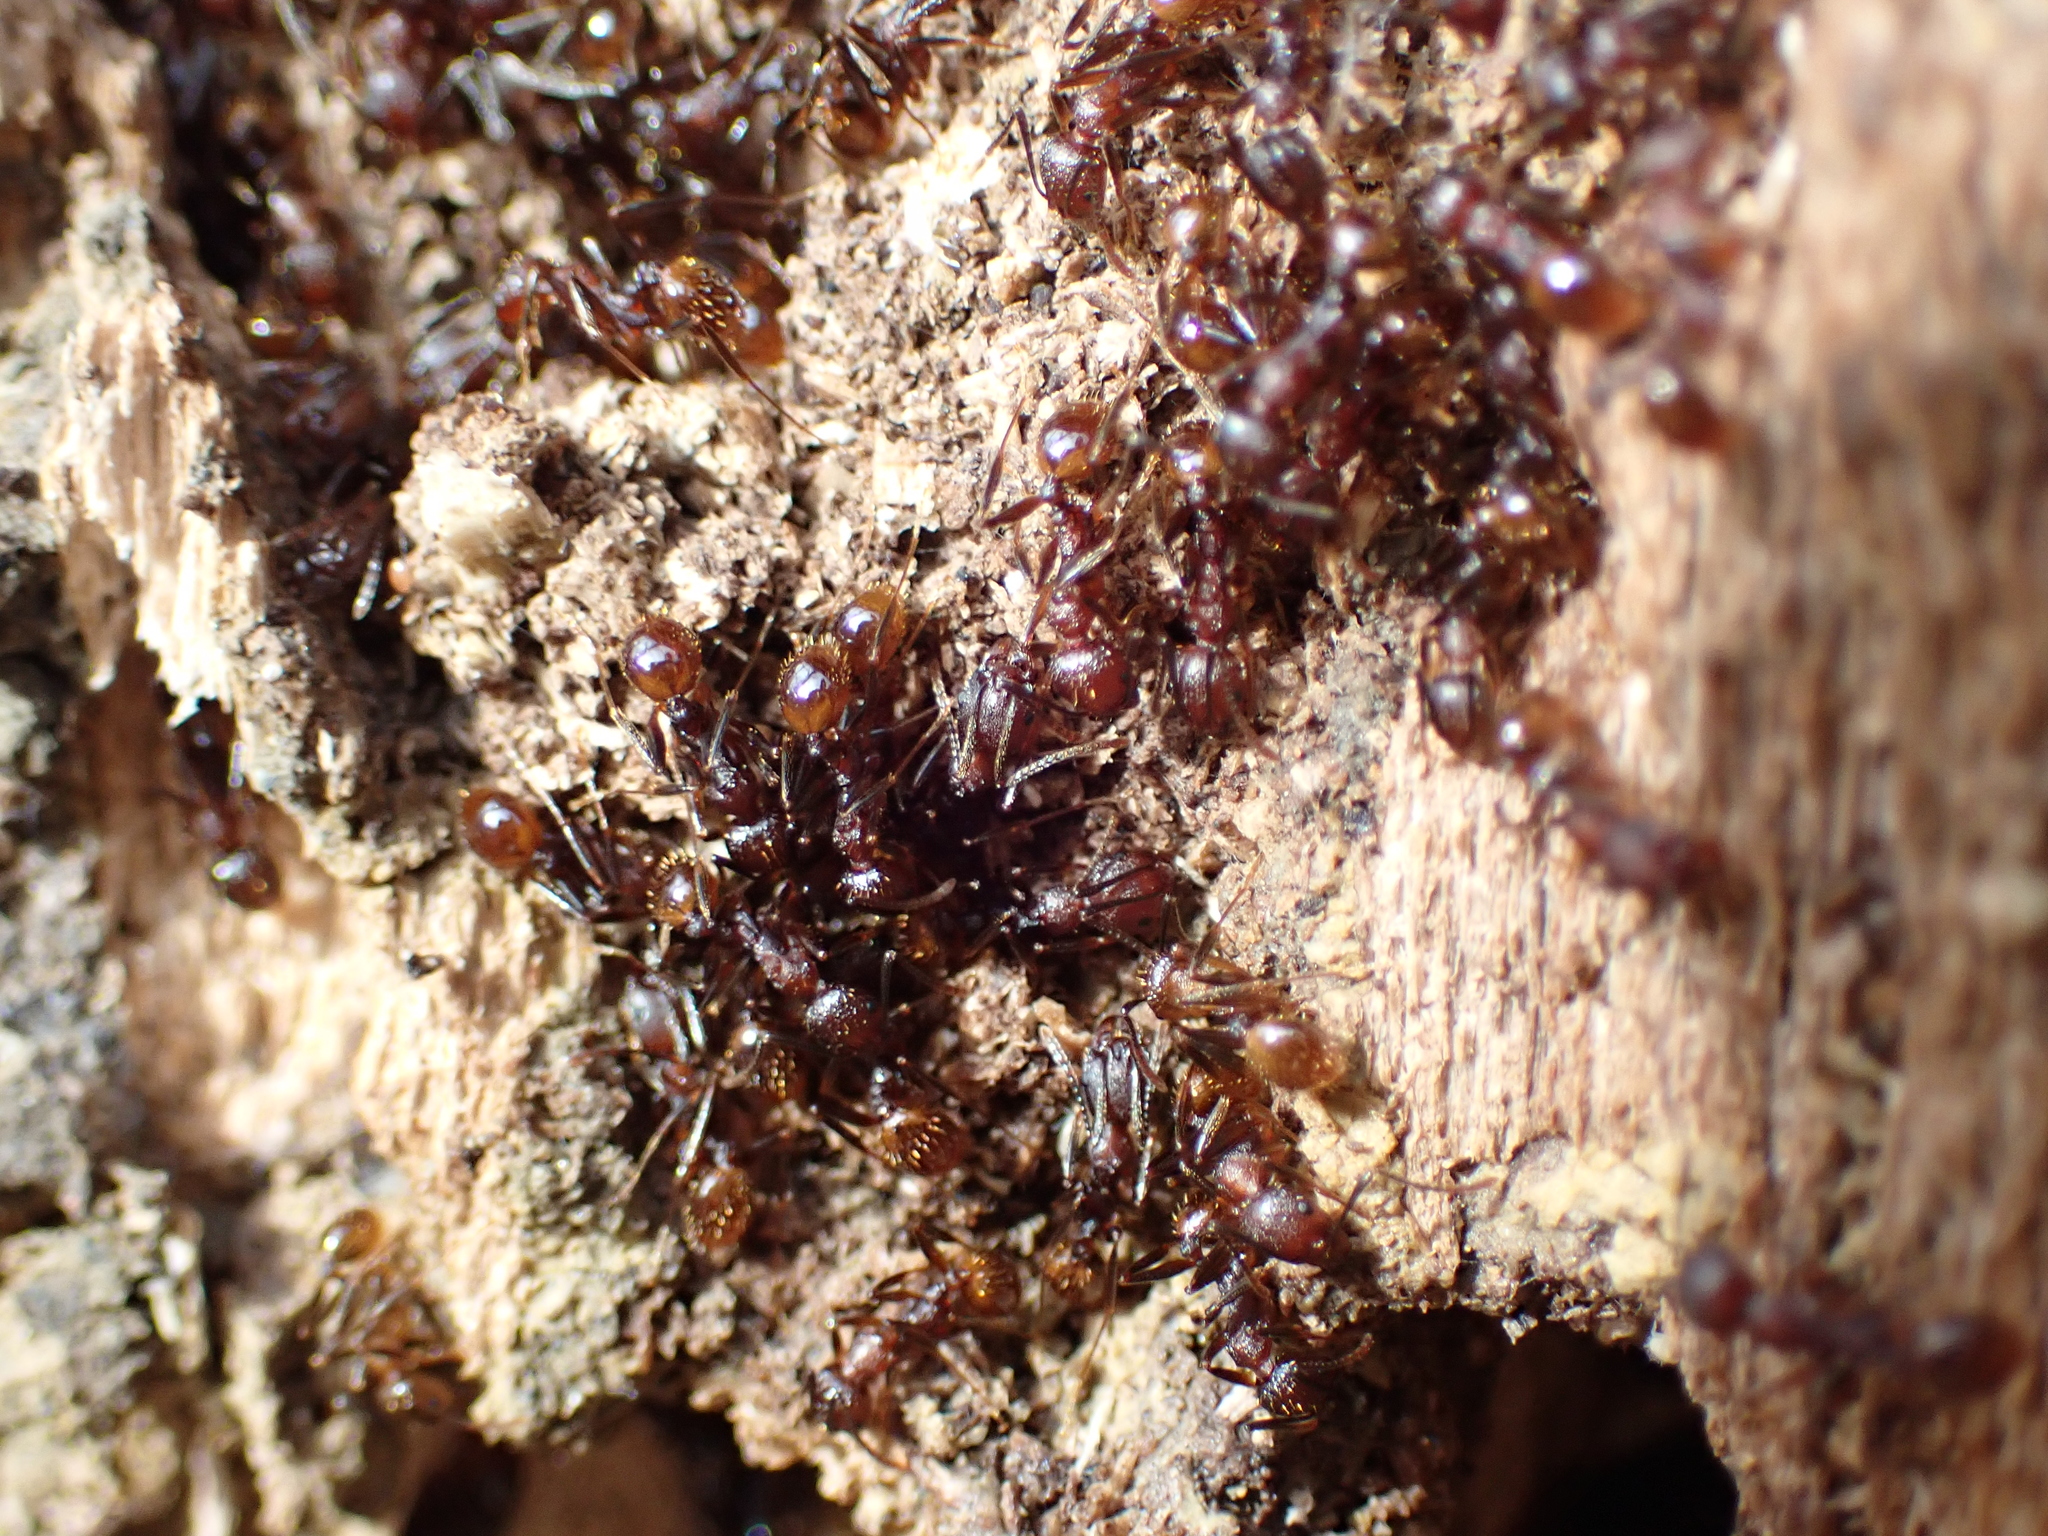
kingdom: Animalia
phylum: Arthropoda
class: Insecta
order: Hymenoptera
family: Formicidae
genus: Aphaenogaster
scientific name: Aphaenogaster fulva
